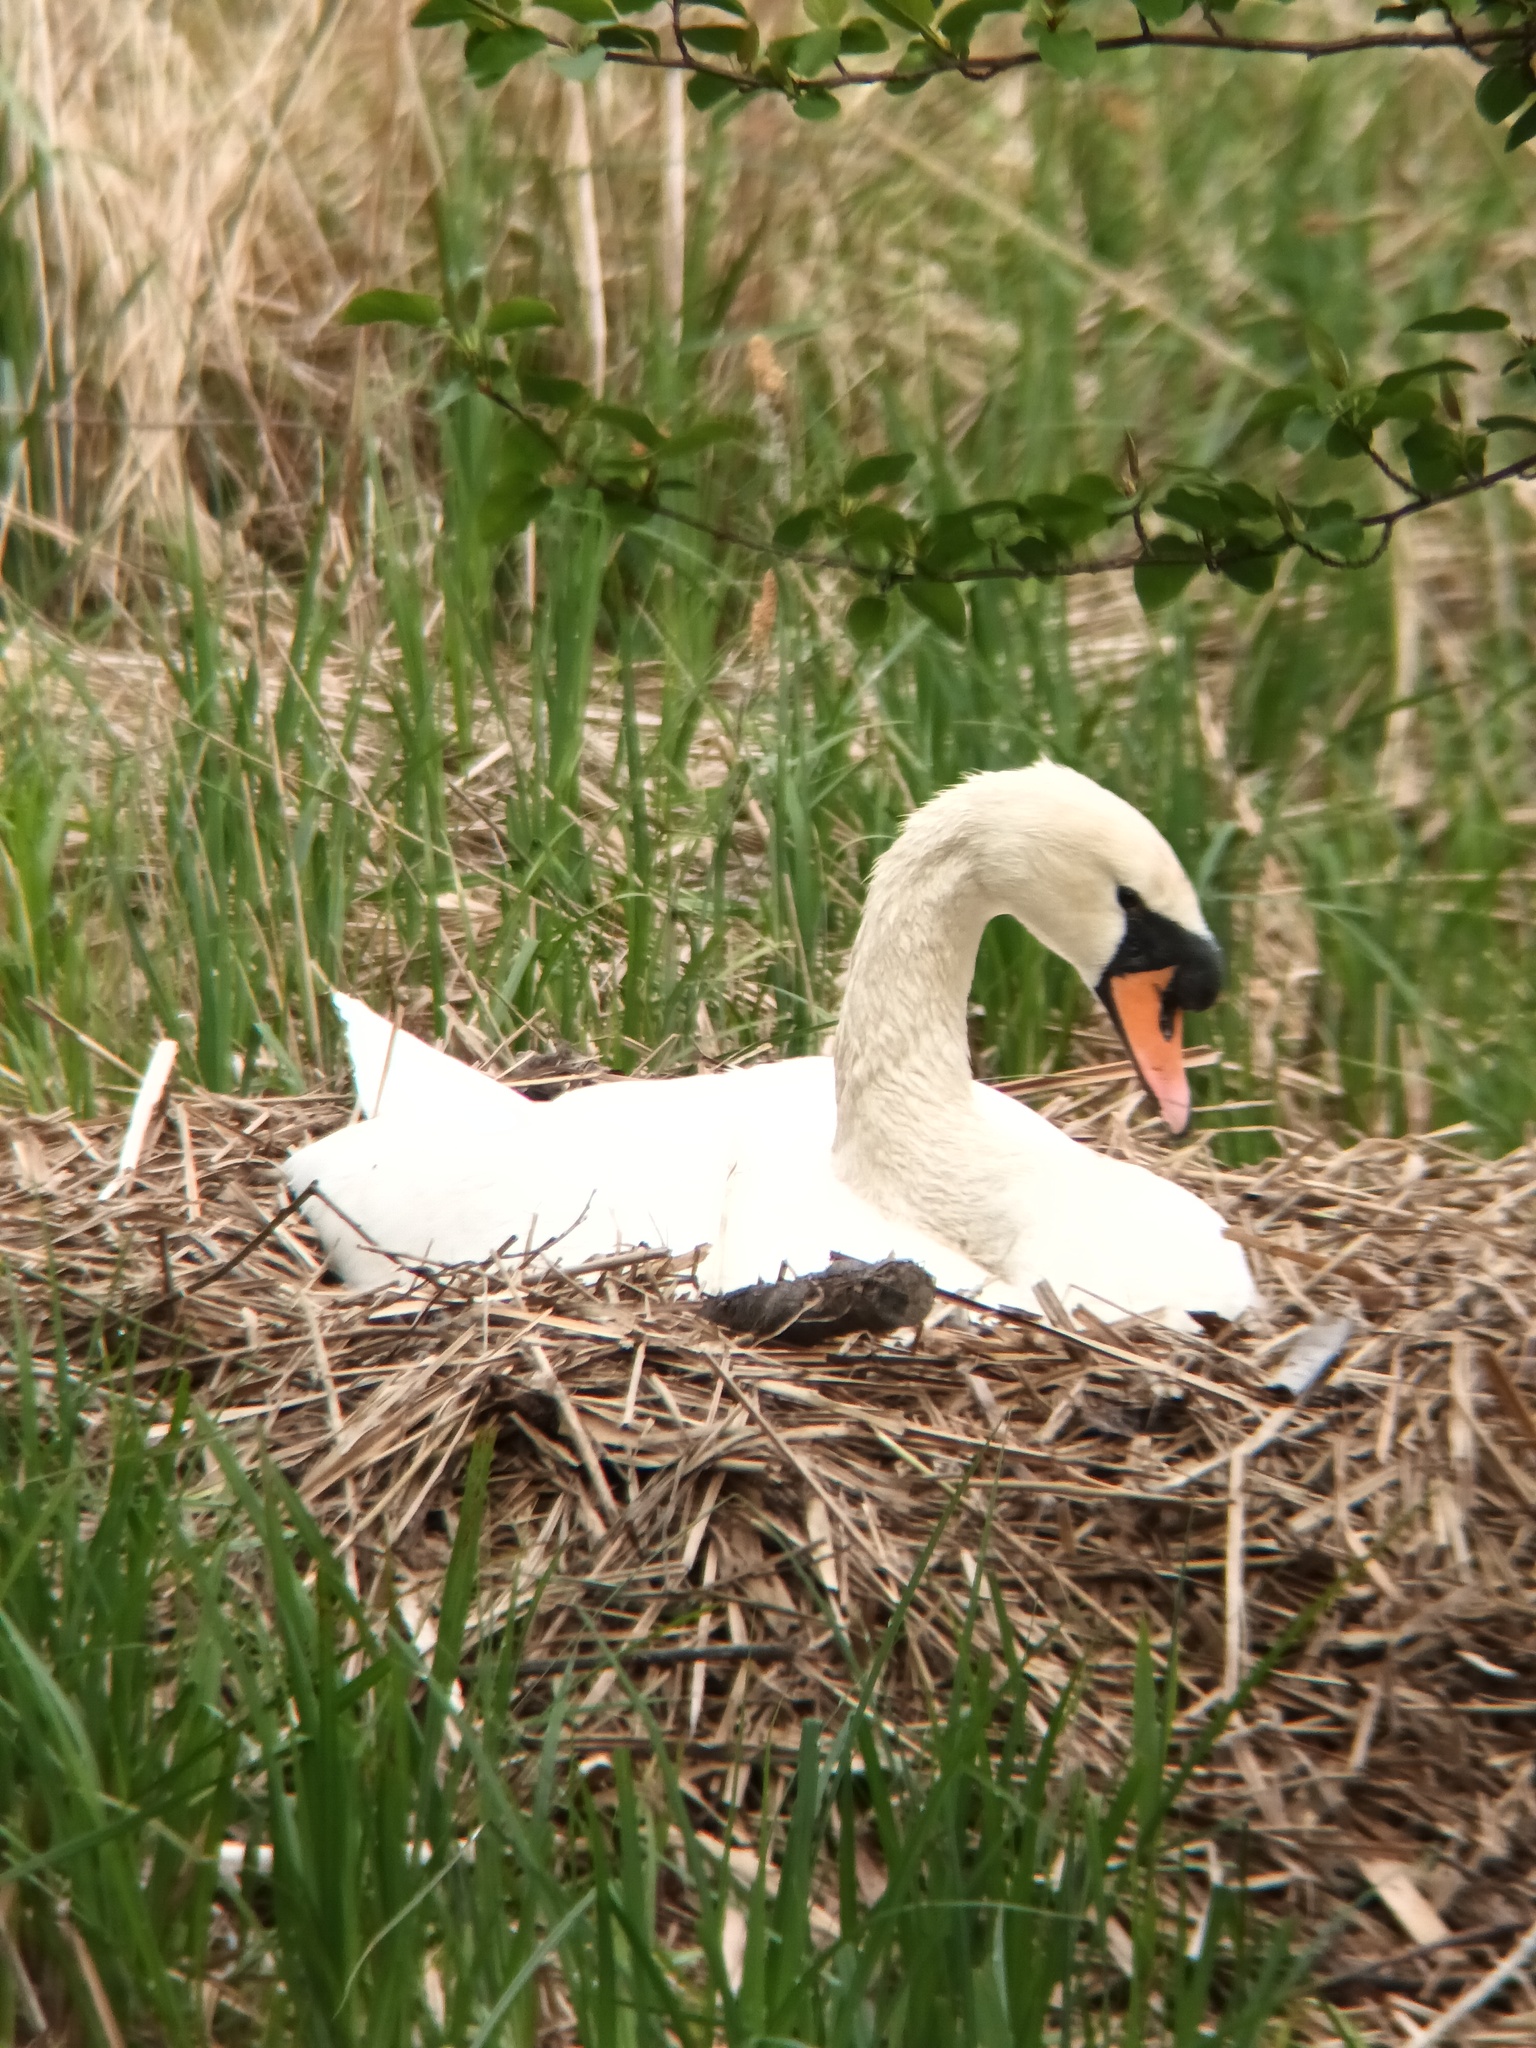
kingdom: Animalia
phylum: Chordata
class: Aves
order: Anseriformes
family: Anatidae
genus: Cygnus
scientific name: Cygnus olor
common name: Mute swan
